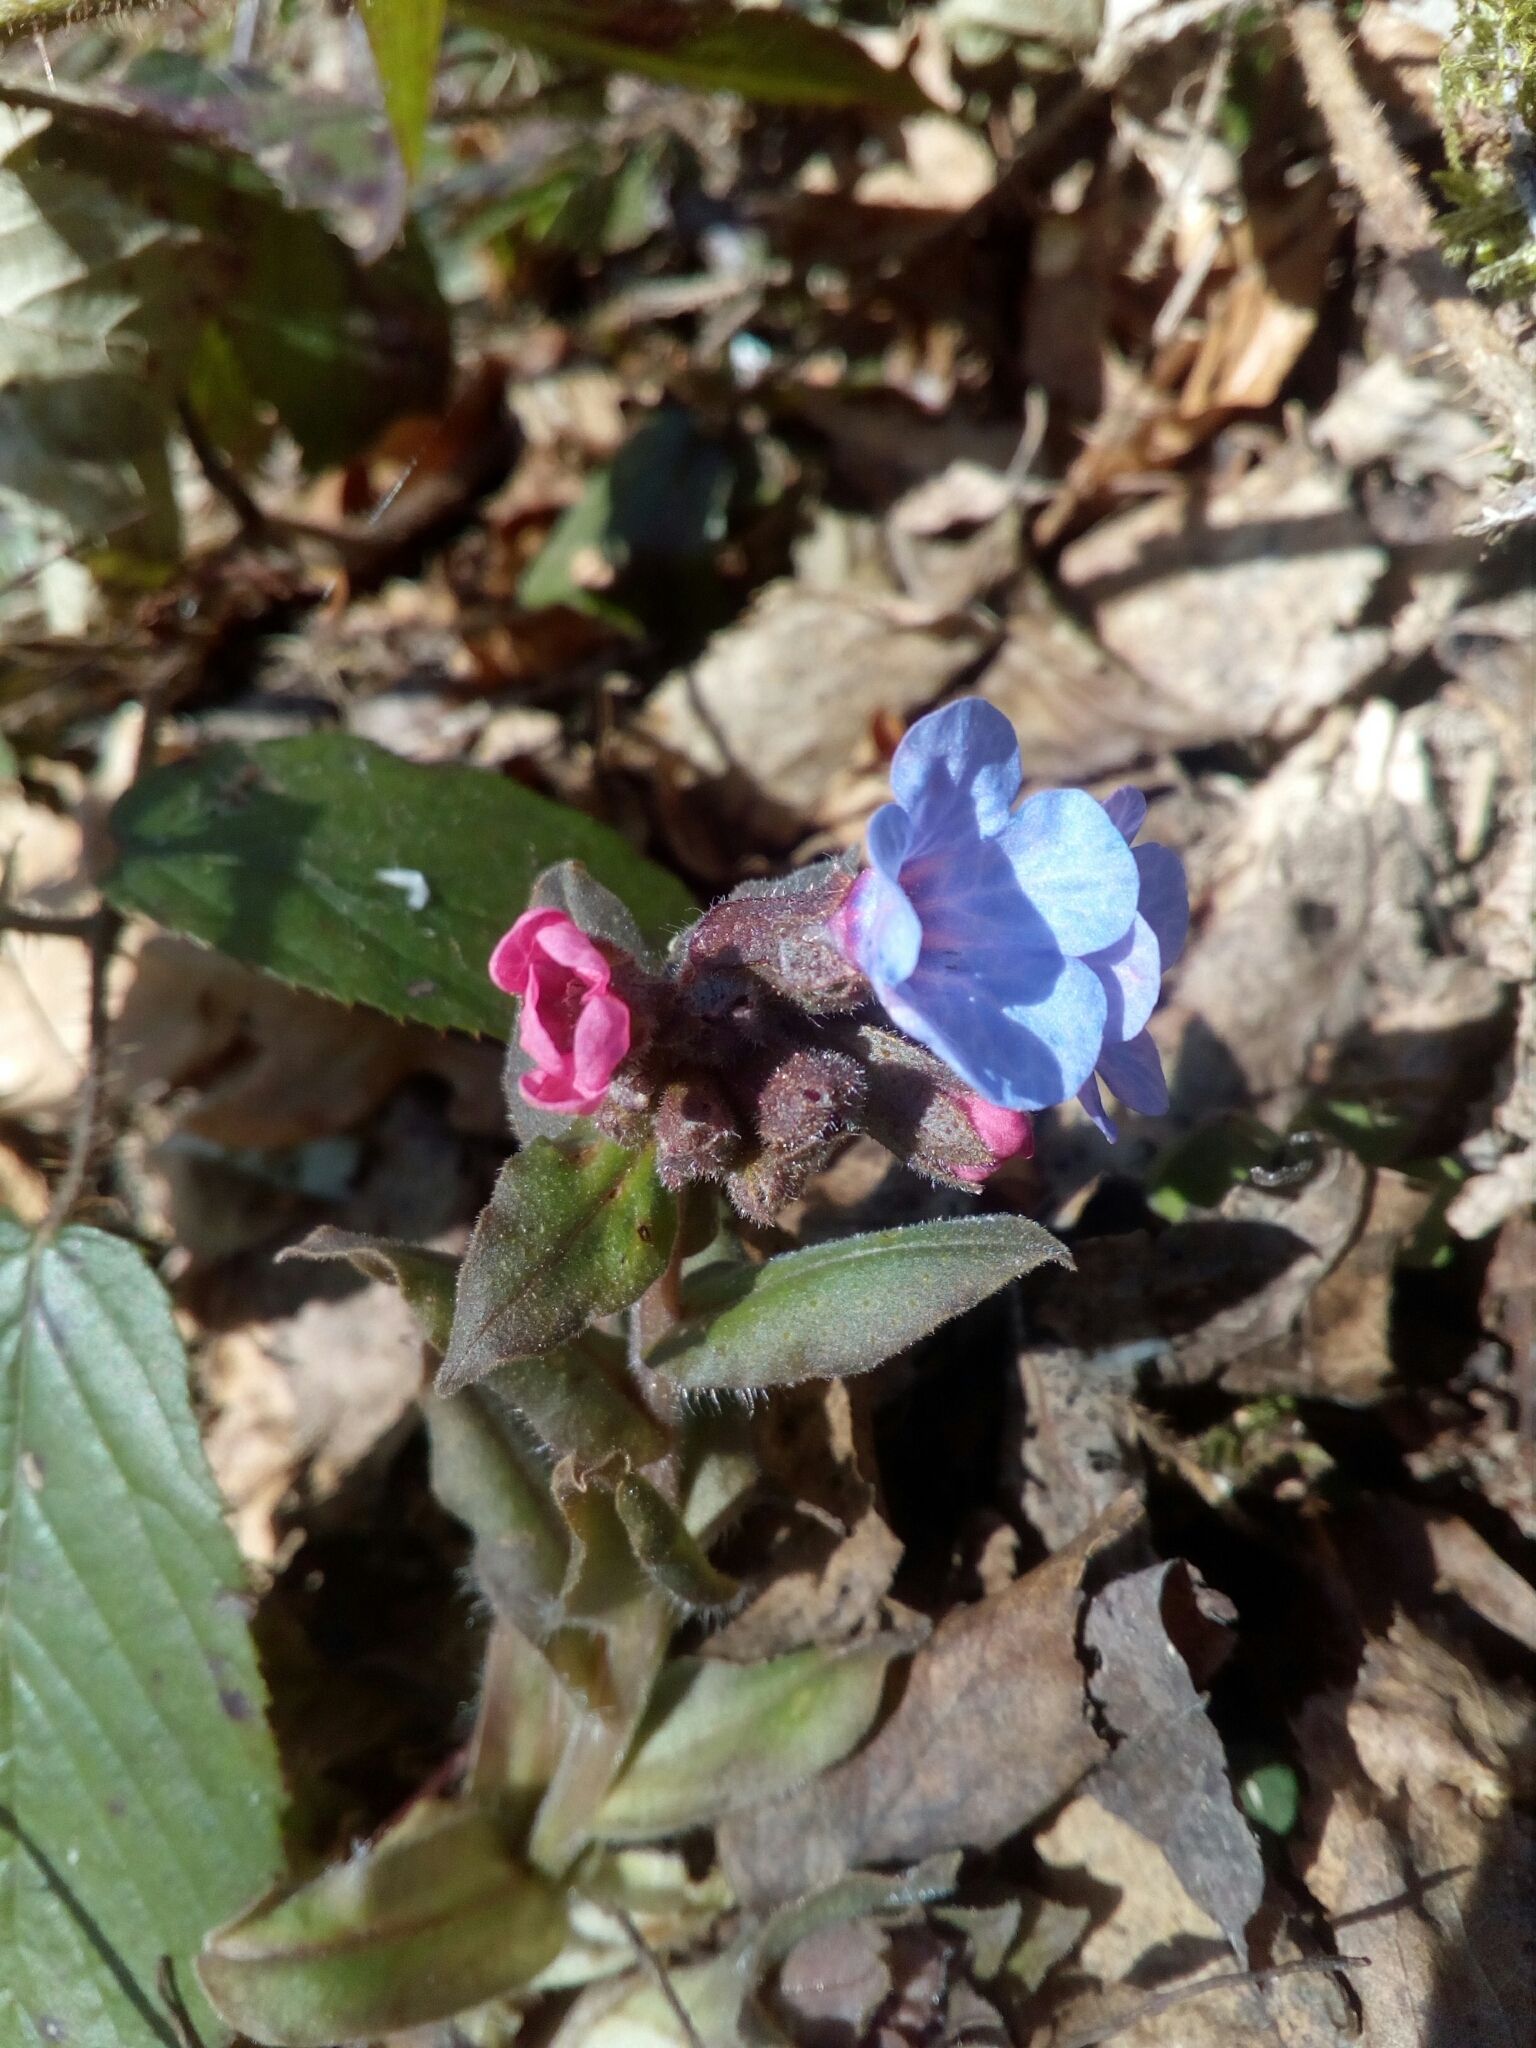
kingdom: Plantae
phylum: Tracheophyta
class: Magnoliopsida
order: Boraginales
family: Boraginaceae
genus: Pulmonaria
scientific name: Pulmonaria officinalis
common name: Lungwort
